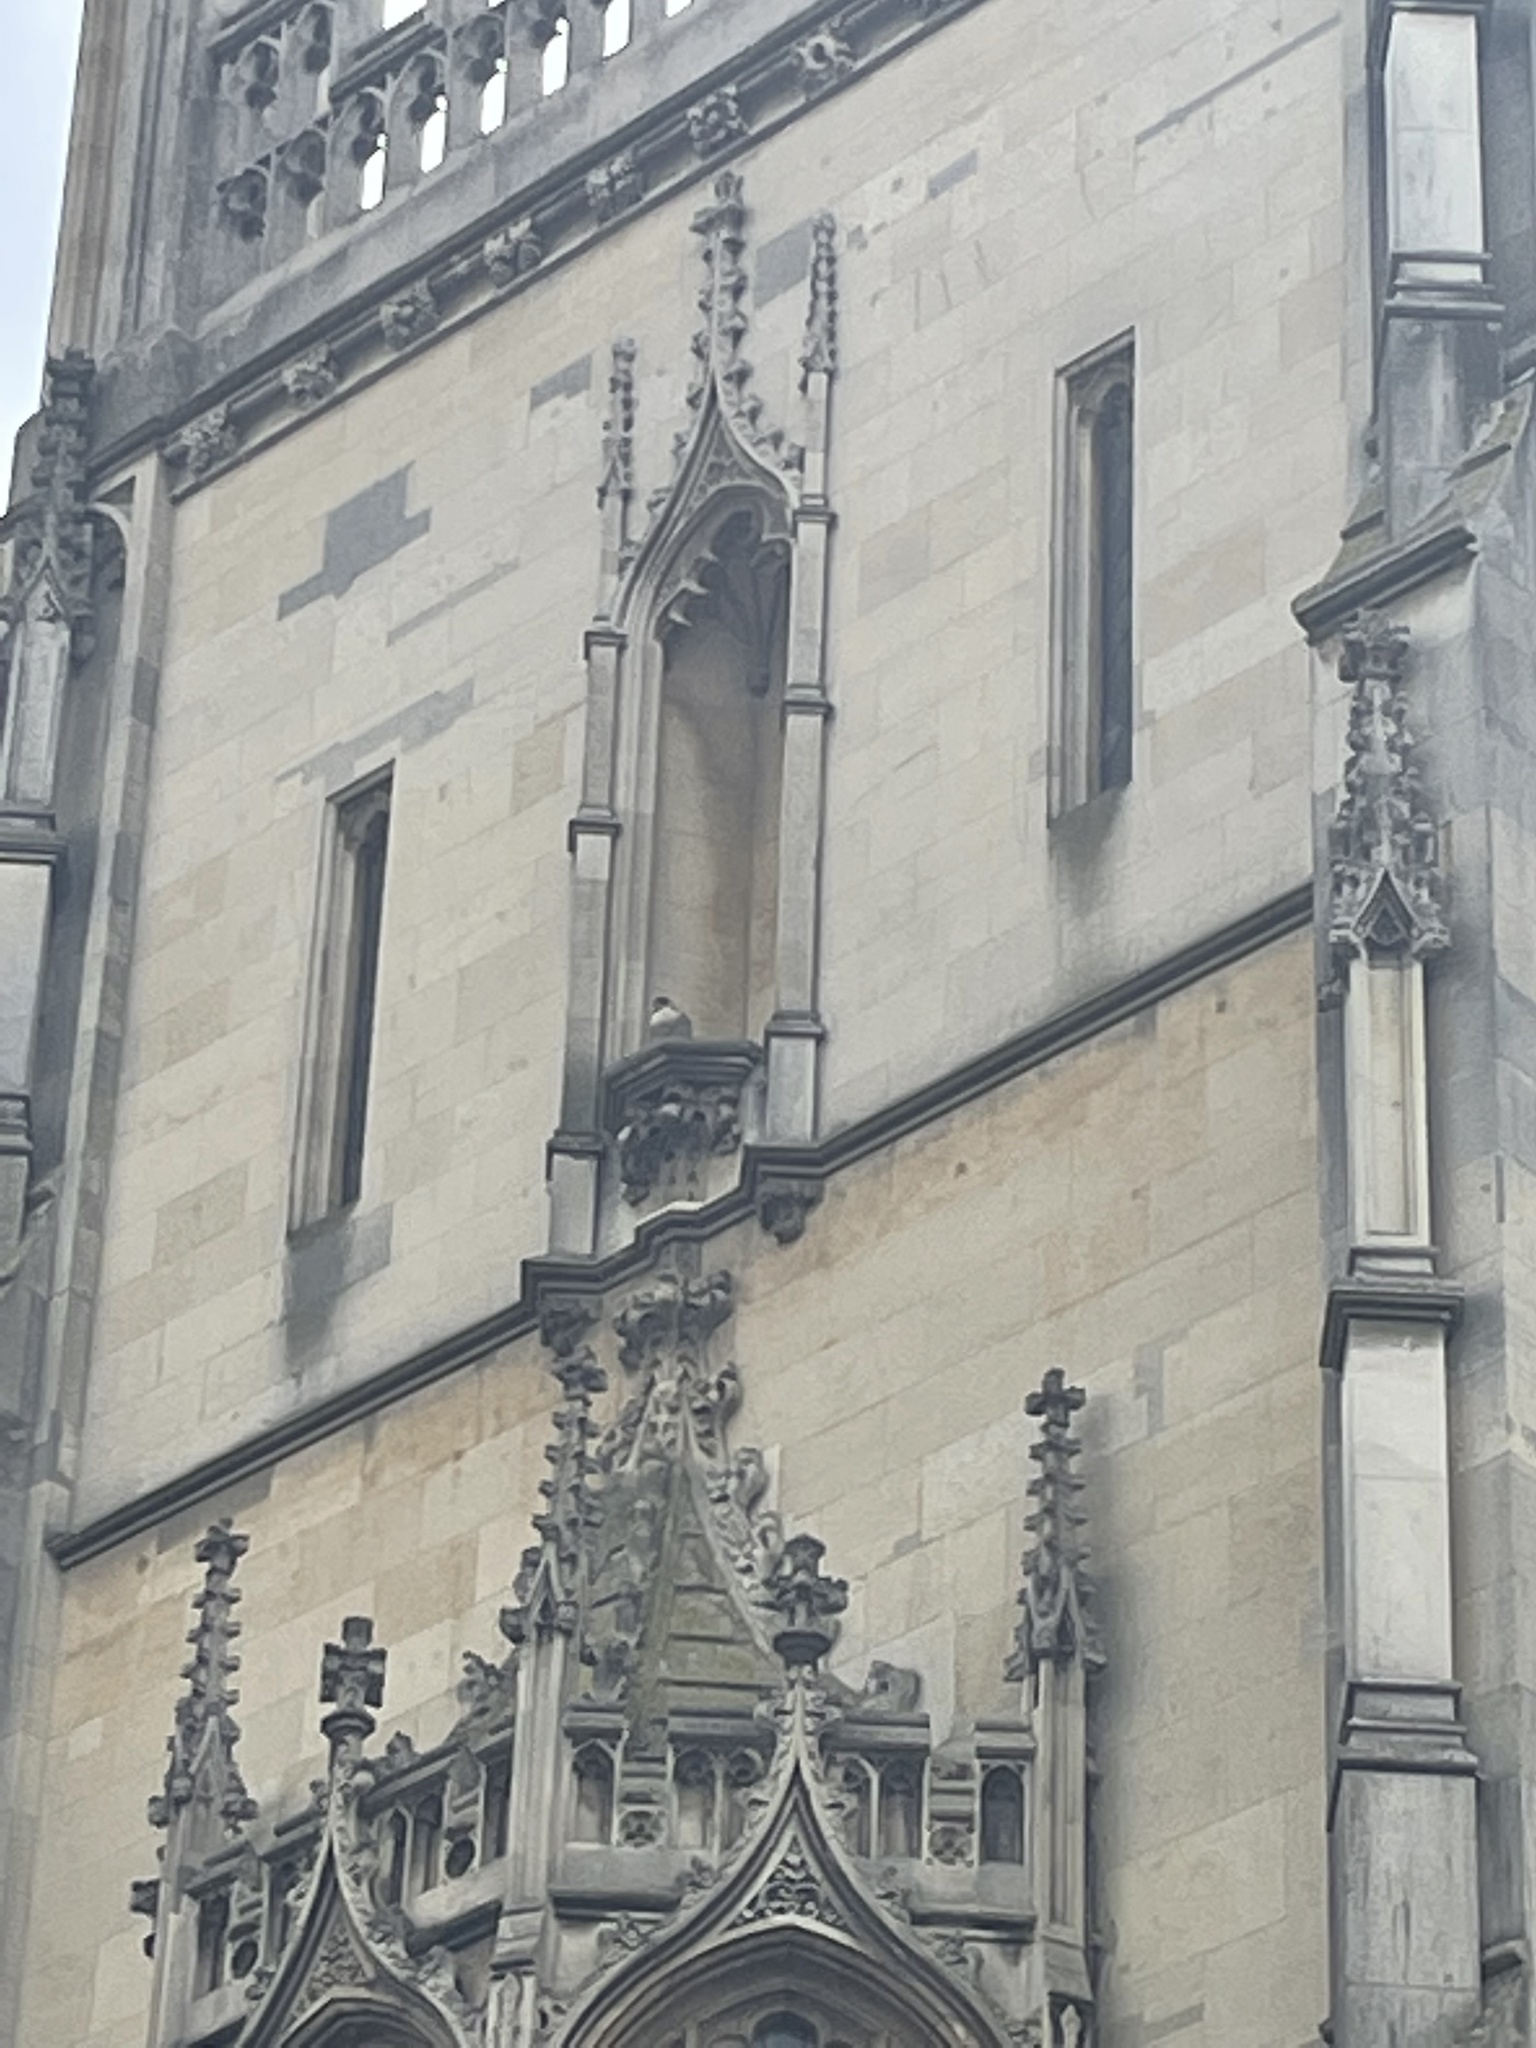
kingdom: Animalia
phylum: Chordata
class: Aves
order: Falconiformes
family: Falconidae
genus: Falco
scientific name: Falco peregrinus
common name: Peregrine falcon
